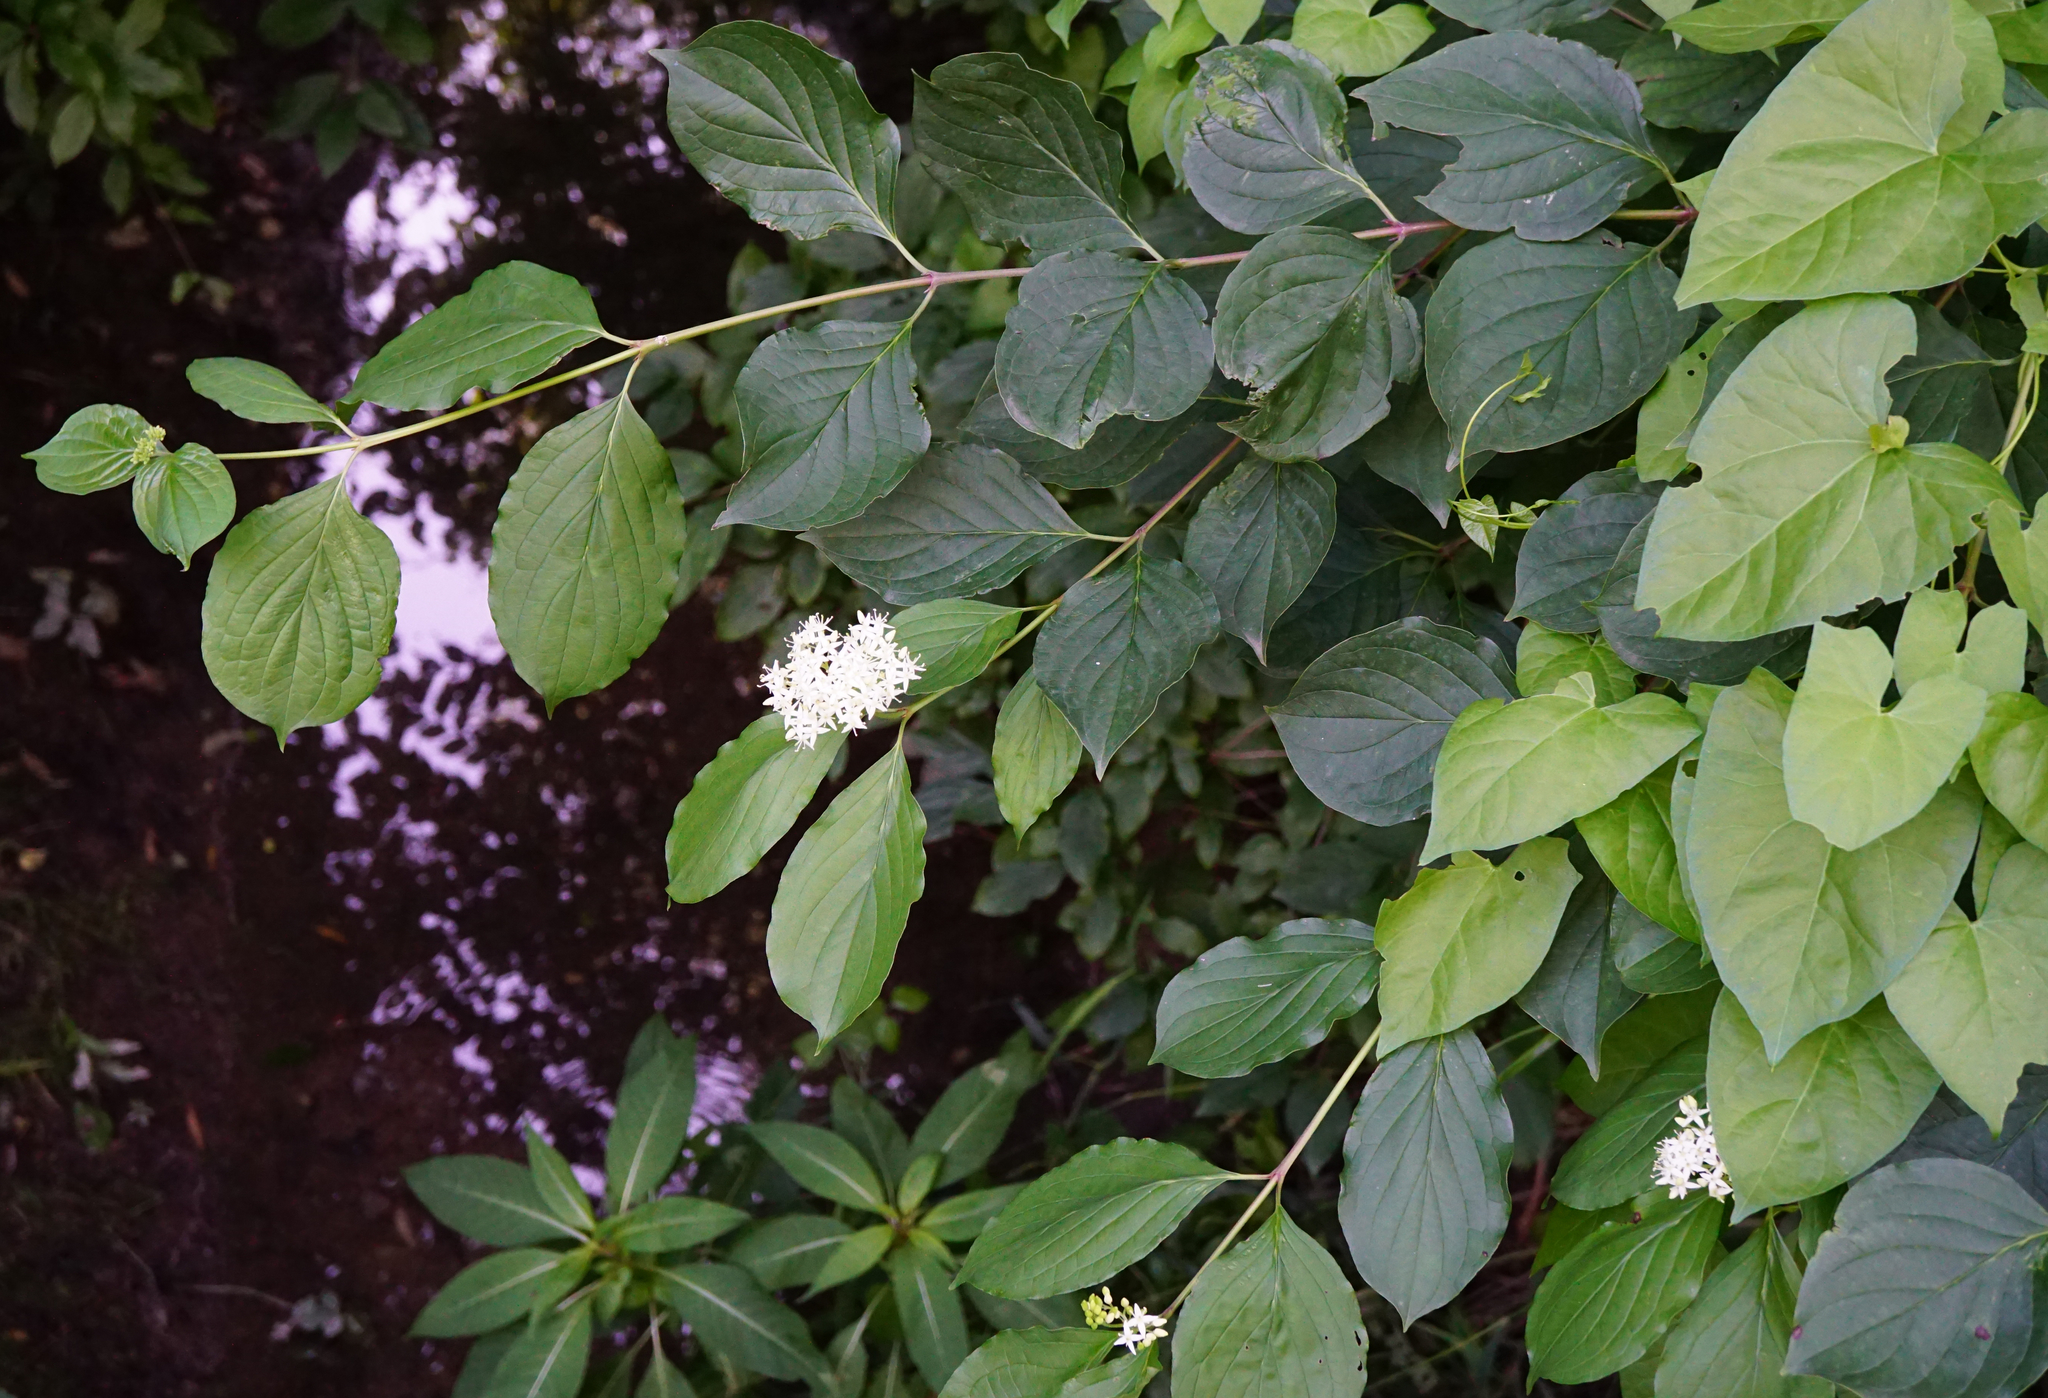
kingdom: Plantae
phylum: Tracheophyta
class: Magnoliopsida
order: Cornales
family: Cornaceae
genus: Cornus
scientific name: Cornus sanguinea
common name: Dogwood
